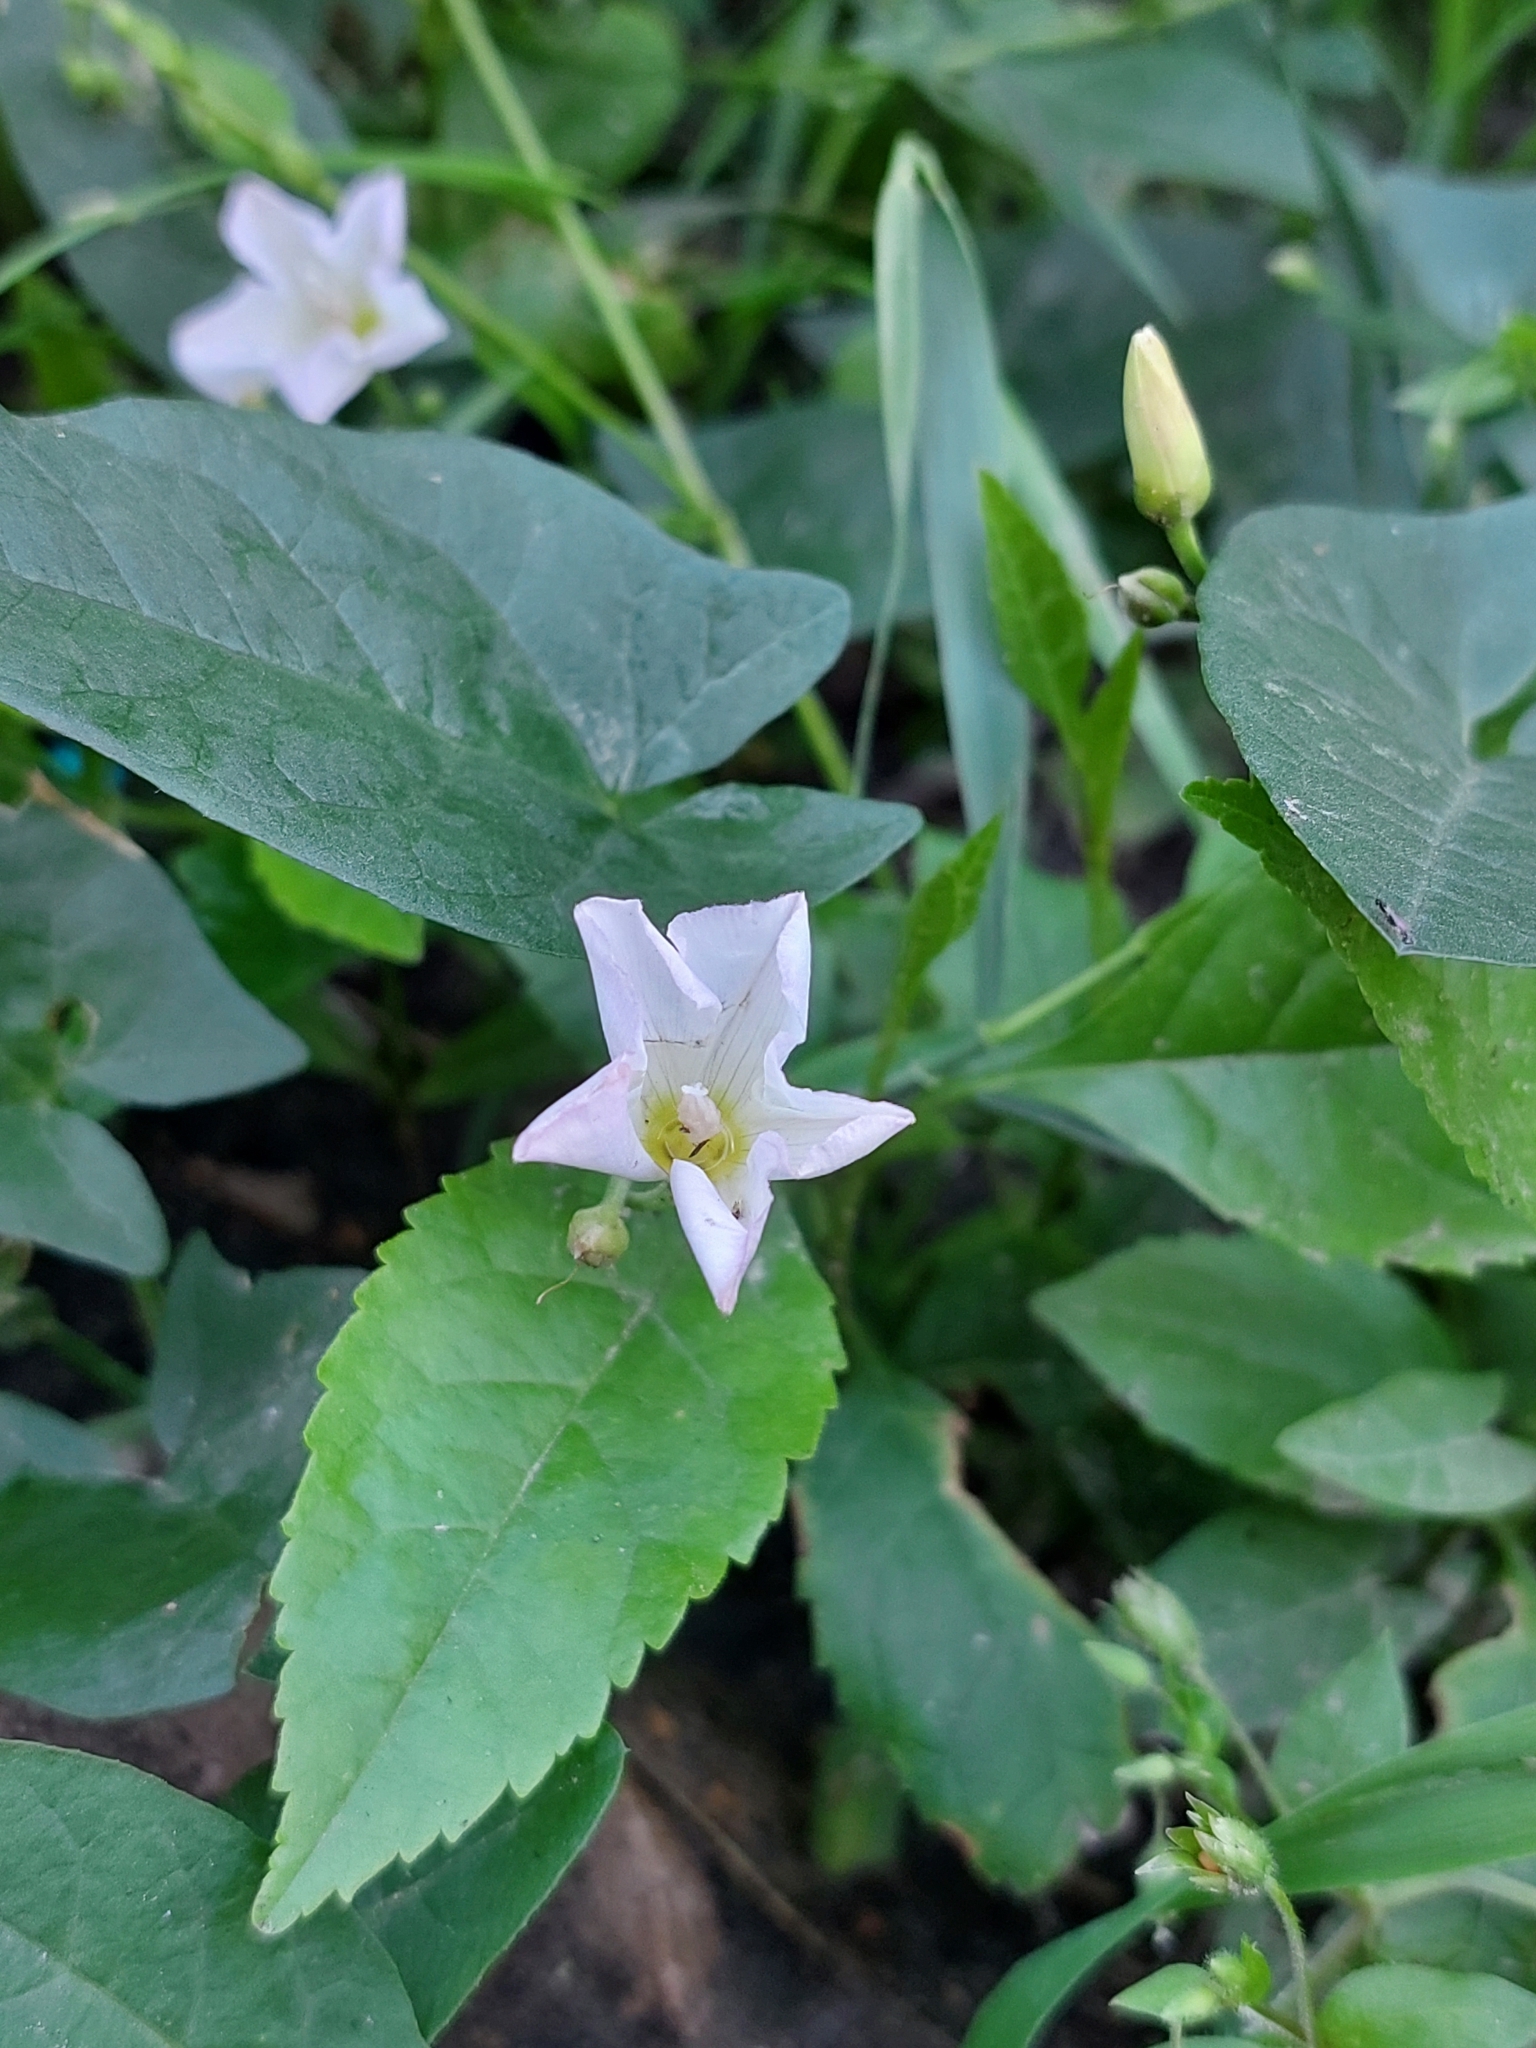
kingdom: Plantae
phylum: Tracheophyta
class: Magnoliopsida
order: Solanales
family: Convolvulaceae
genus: Convolvulus
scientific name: Convolvulus arvensis
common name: Field bindweed
